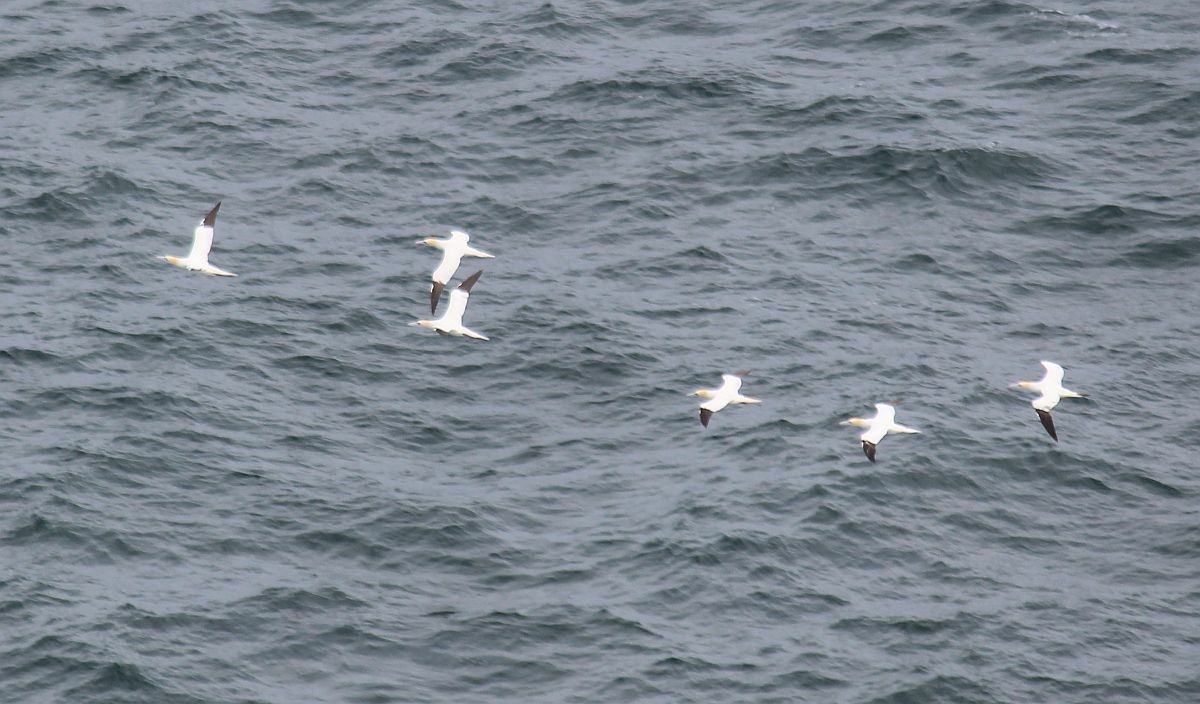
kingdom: Animalia
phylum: Chordata
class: Aves
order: Suliformes
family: Sulidae
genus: Morus
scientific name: Morus bassanus
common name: Northern gannet
